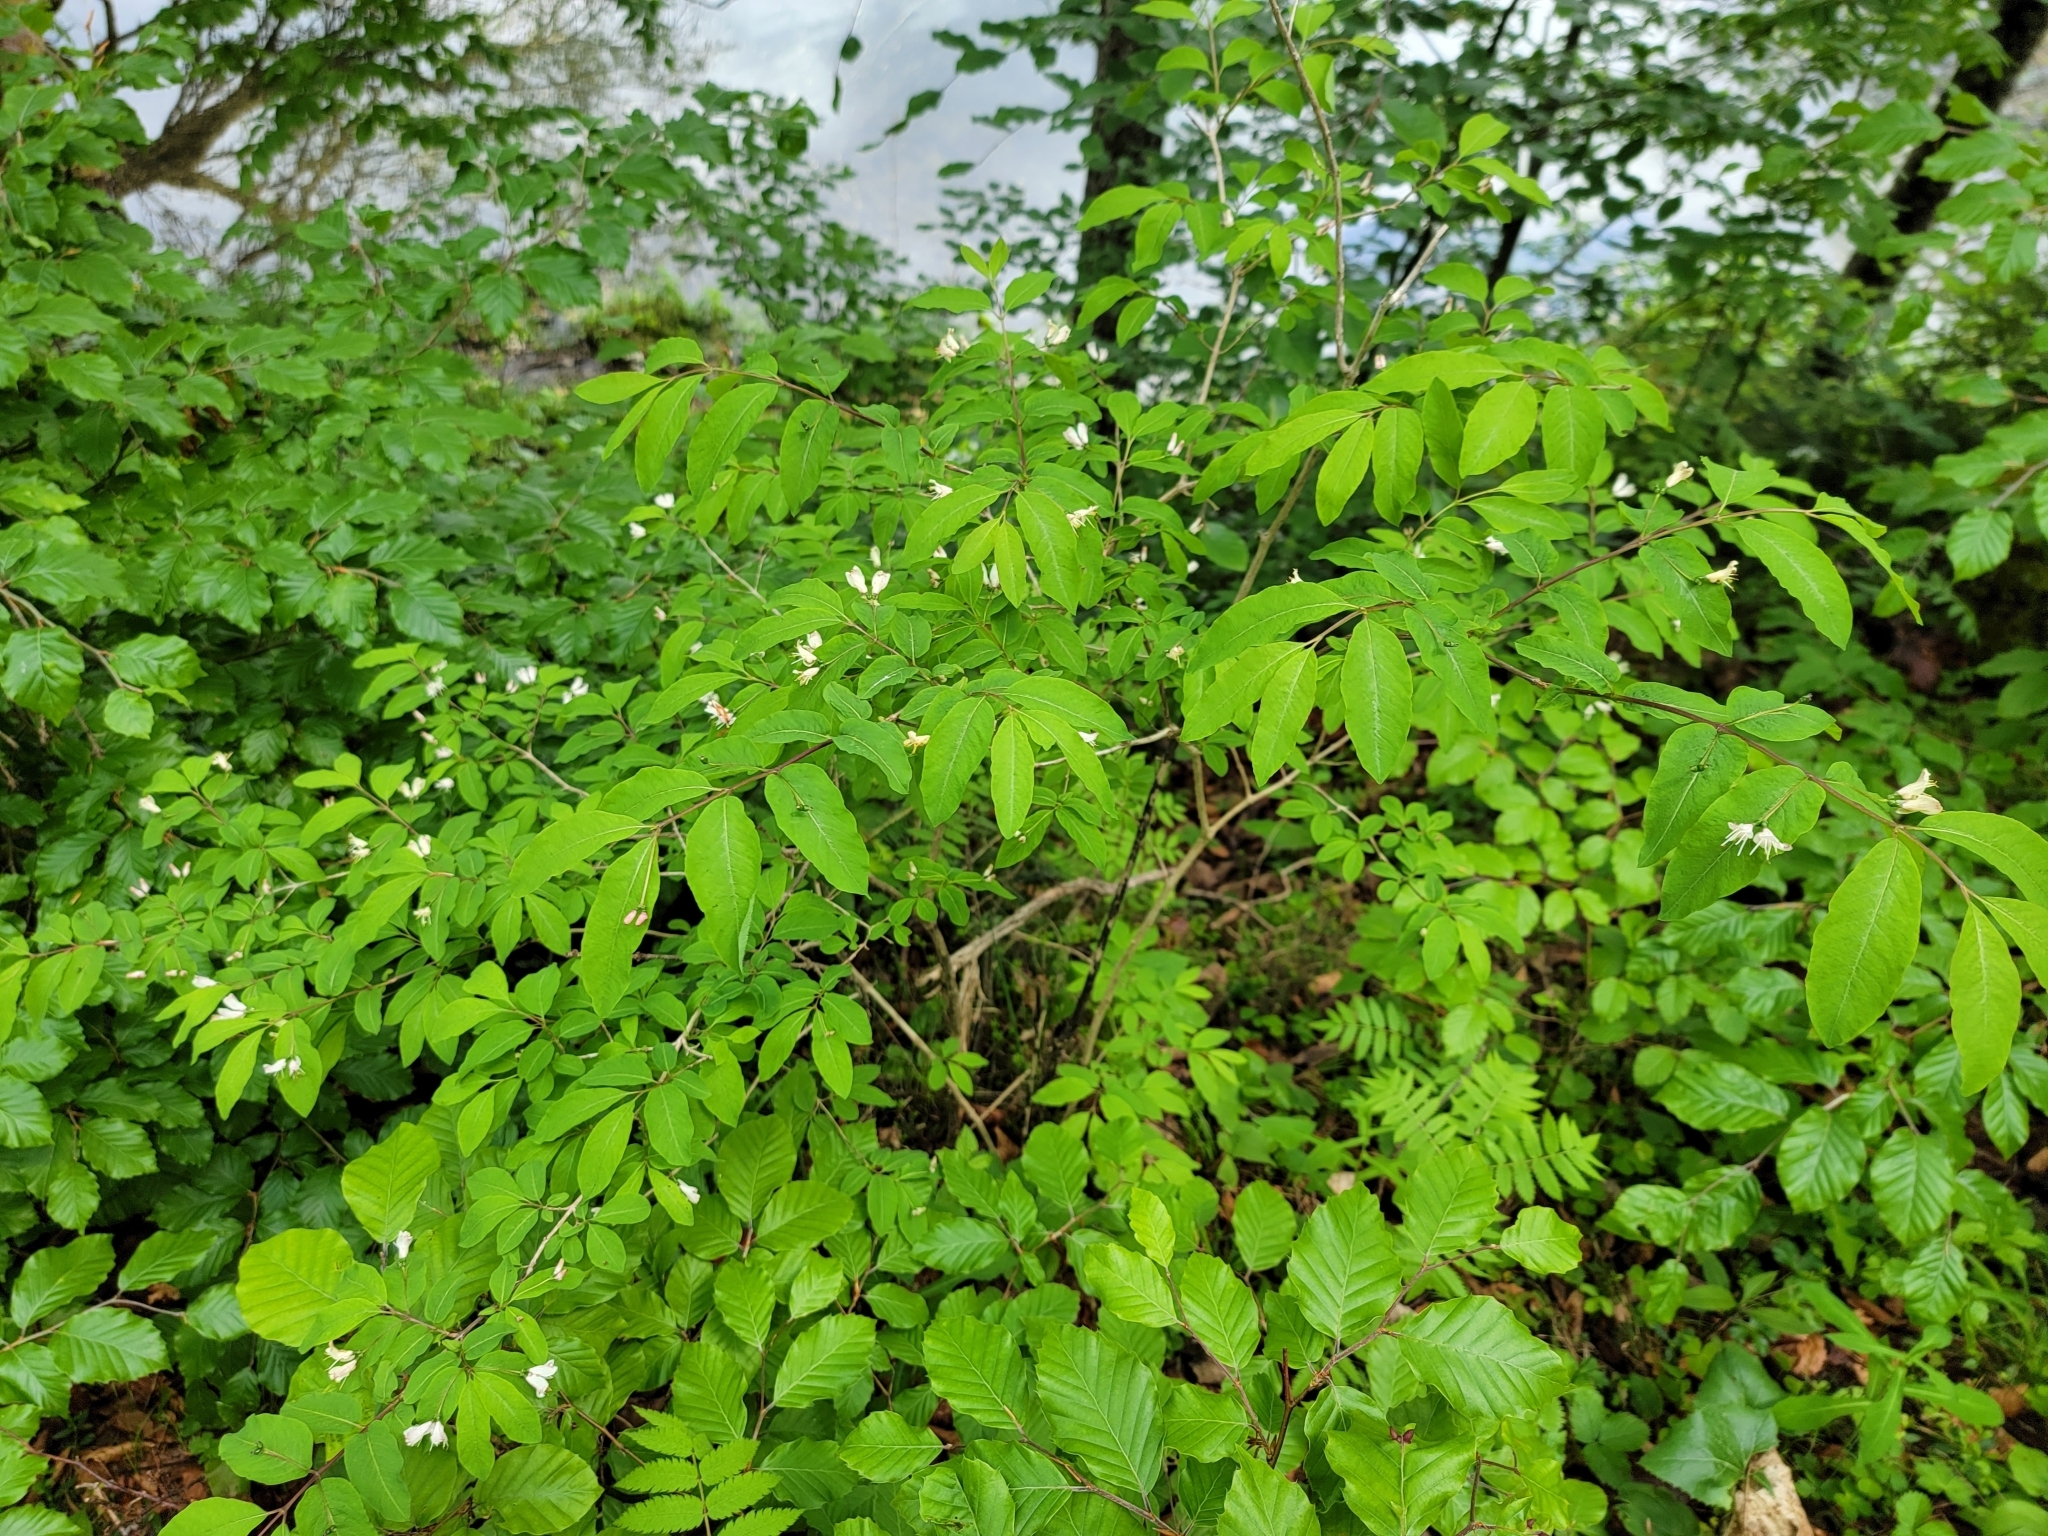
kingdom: Plantae
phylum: Tracheophyta
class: Magnoliopsida
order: Dipsacales
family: Caprifoliaceae
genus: Lonicera
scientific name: Lonicera nigra
